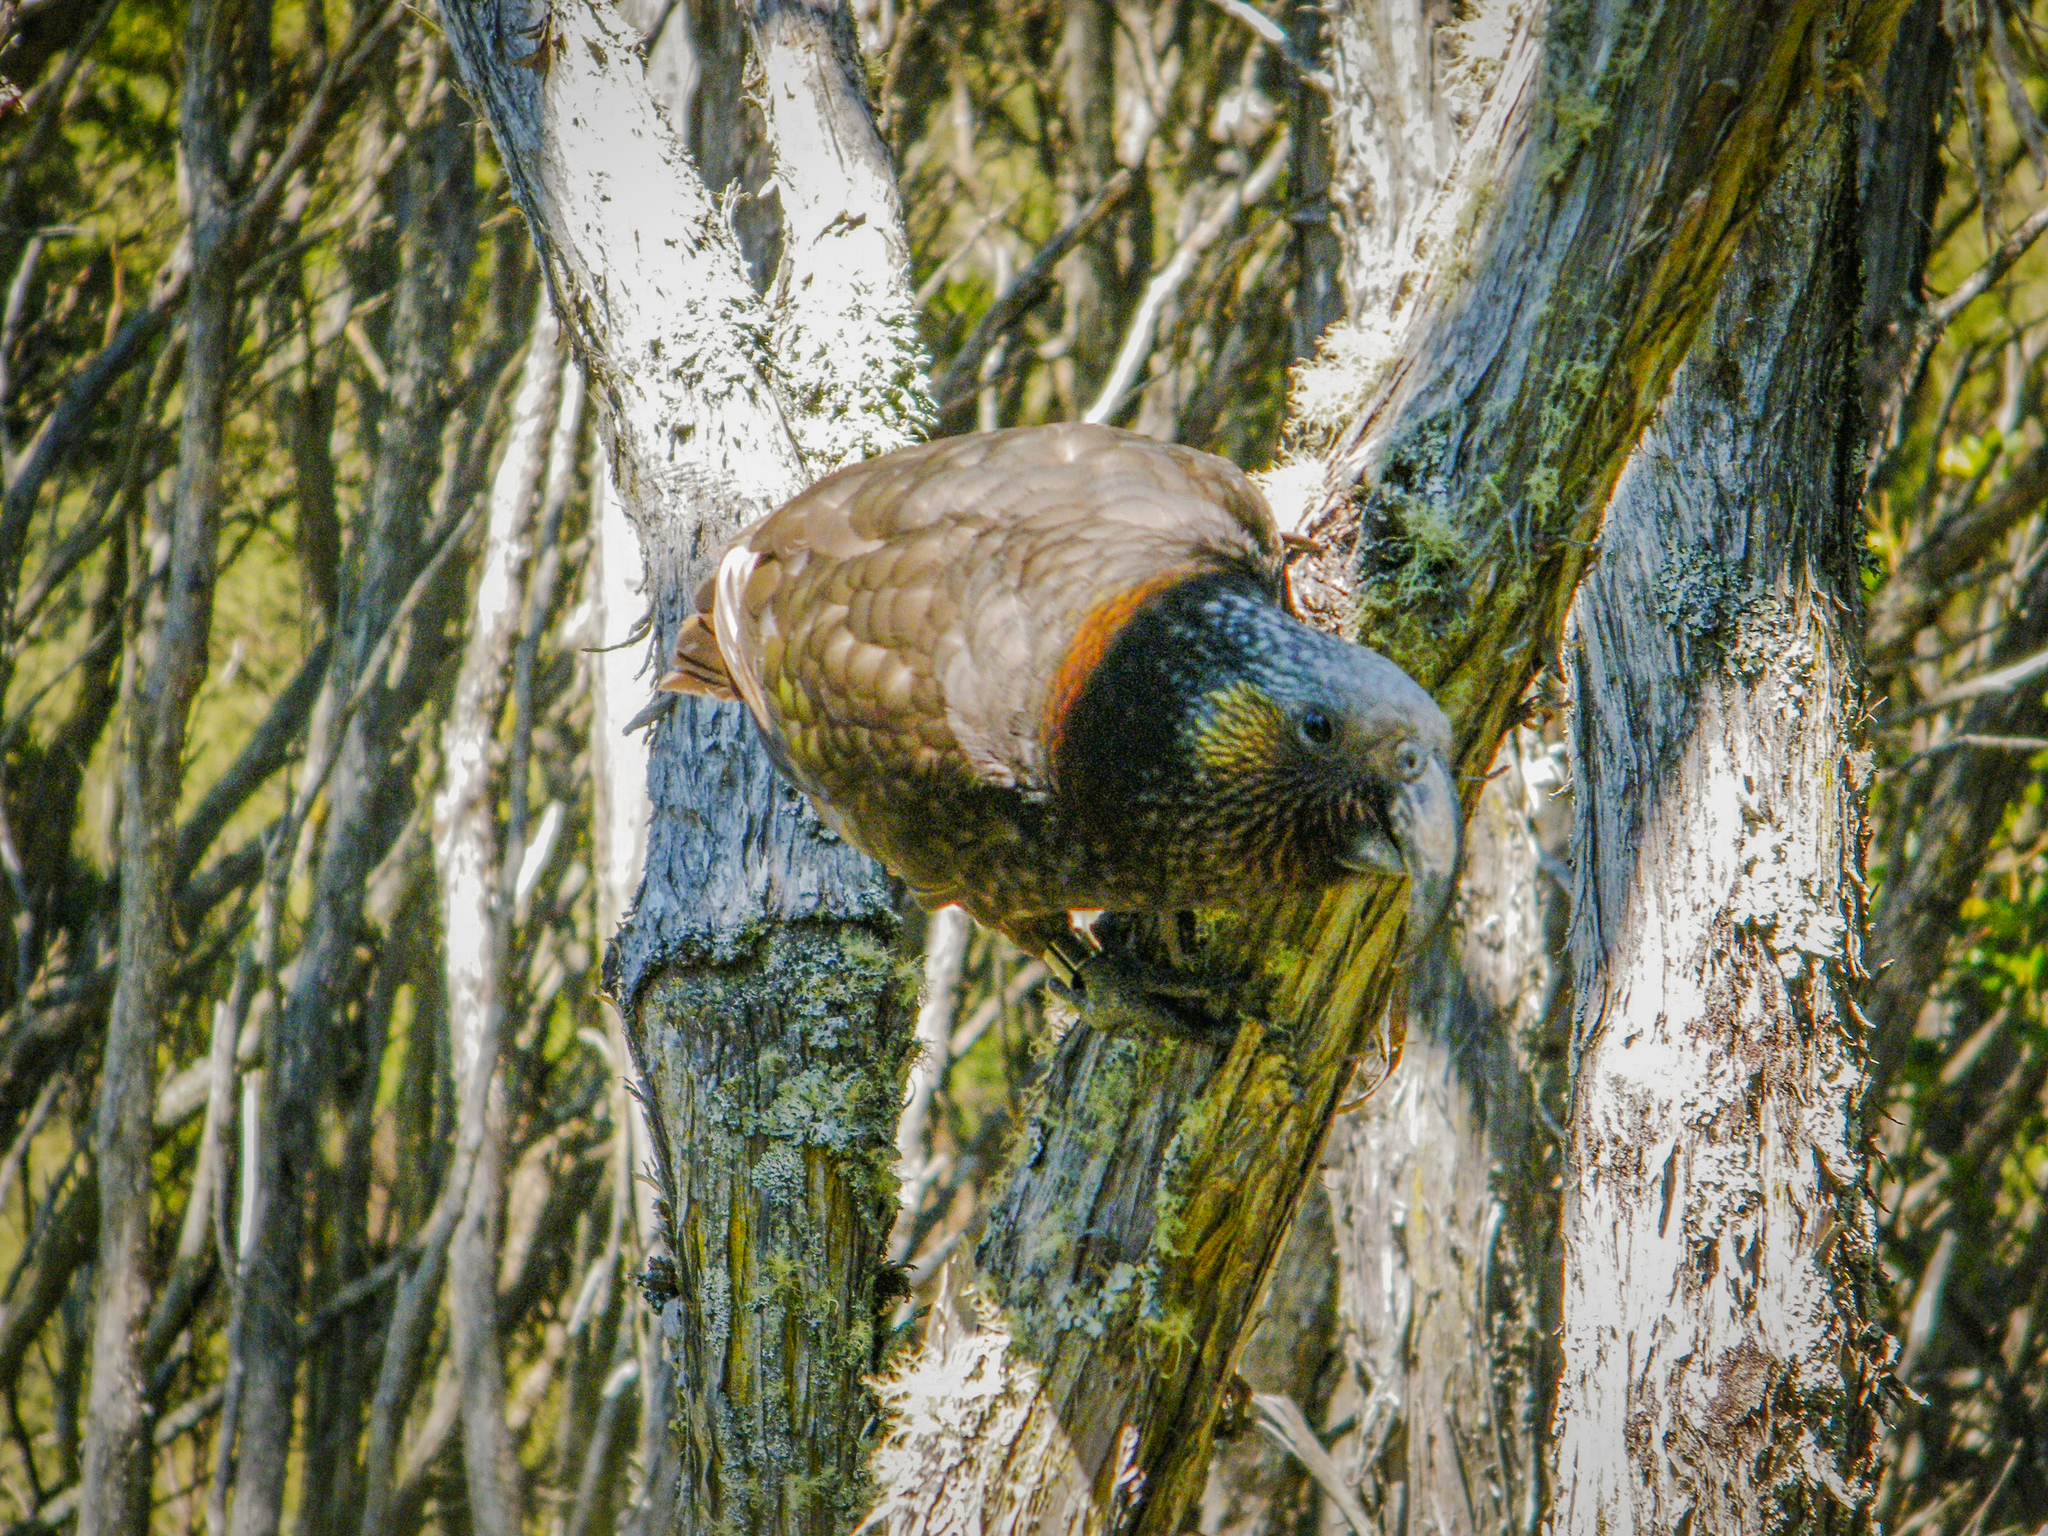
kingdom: Animalia
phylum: Chordata
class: Aves
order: Psittaciformes
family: Psittacidae
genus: Nestor
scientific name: Nestor meridionalis
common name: New zealand kaka
